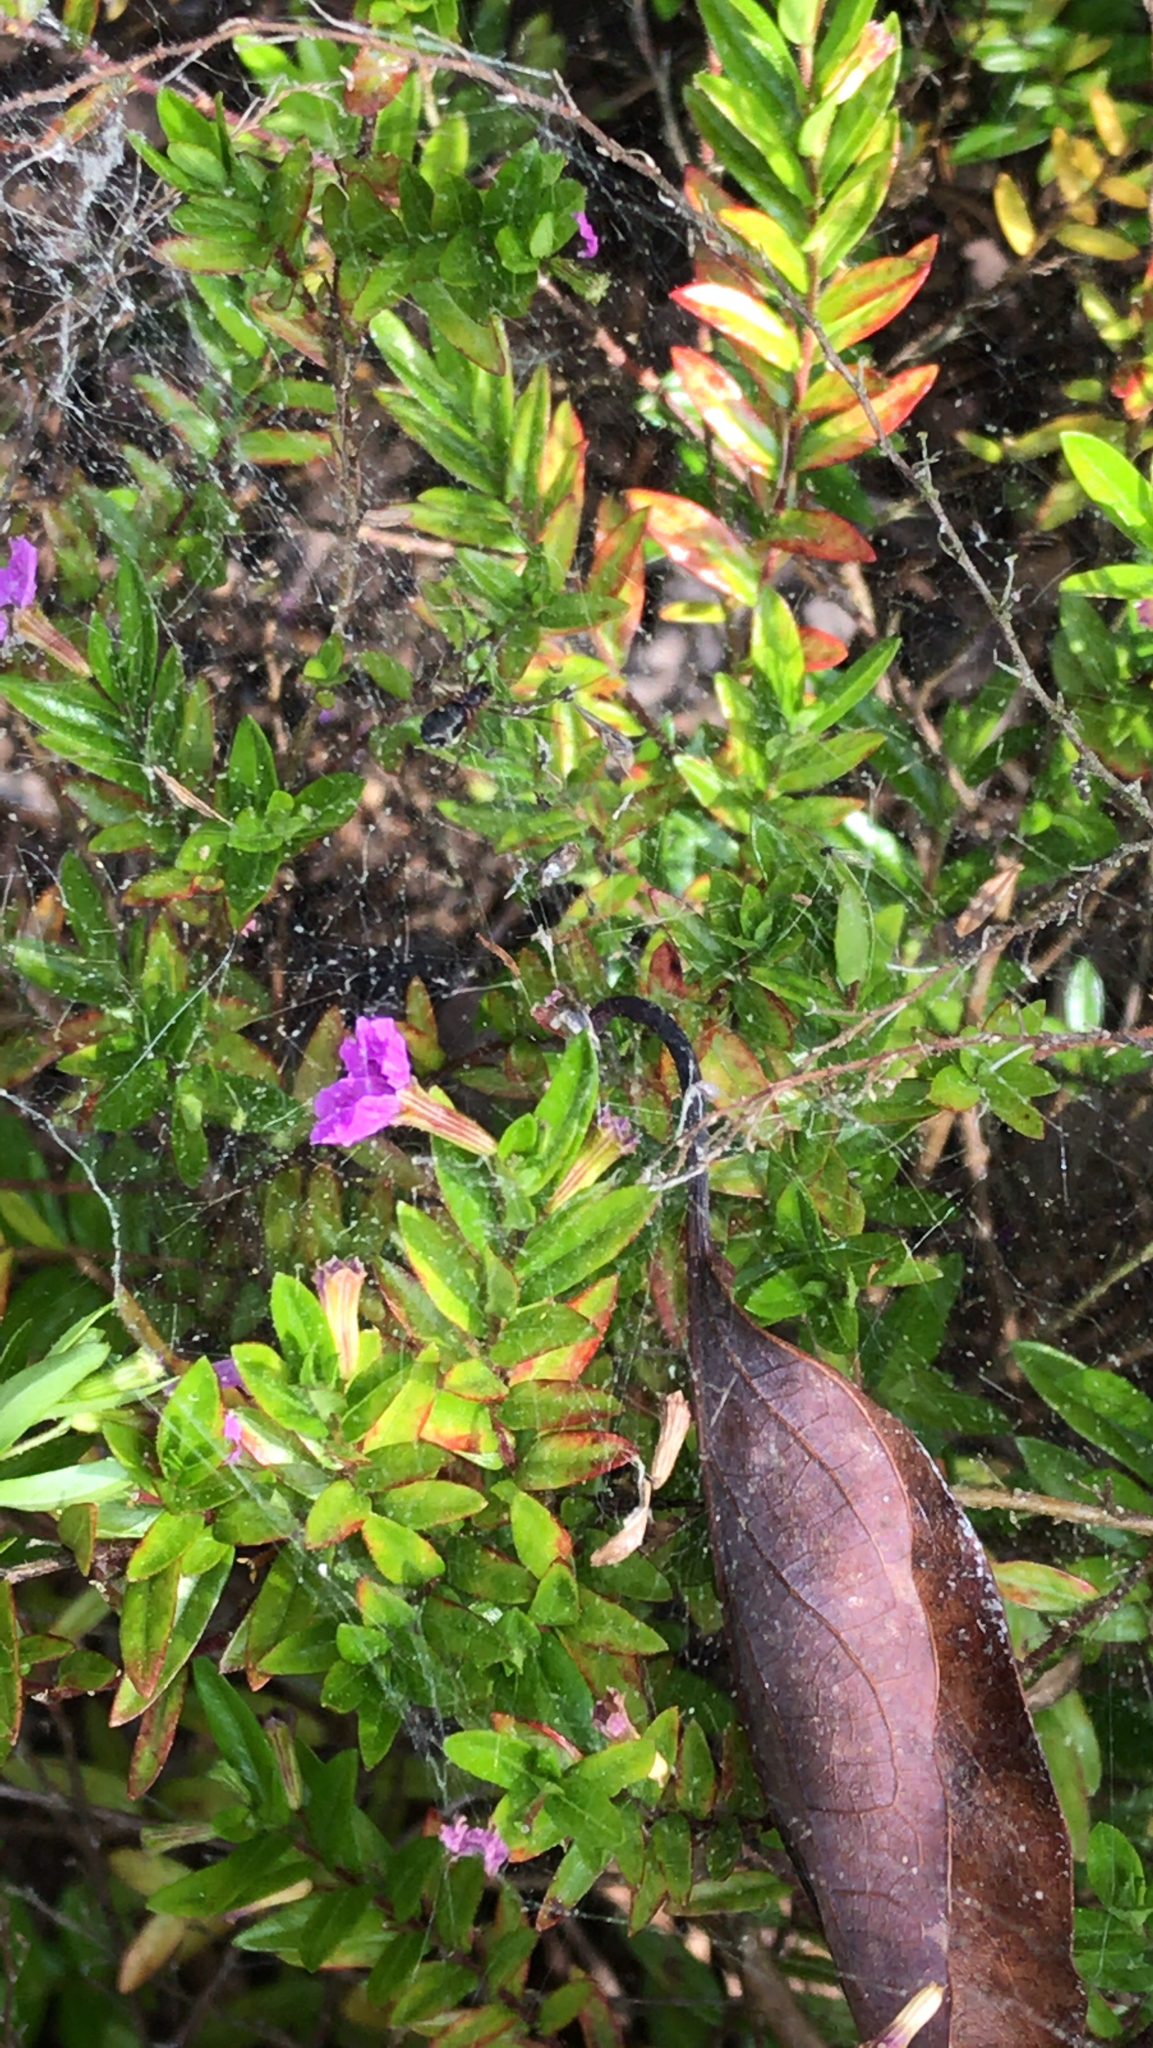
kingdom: Plantae
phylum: Tracheophyta
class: Magnoliopsida
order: Myrtales
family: Lythraceae
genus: Cuphea
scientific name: Cuphea hyssopifolia
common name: False heather
